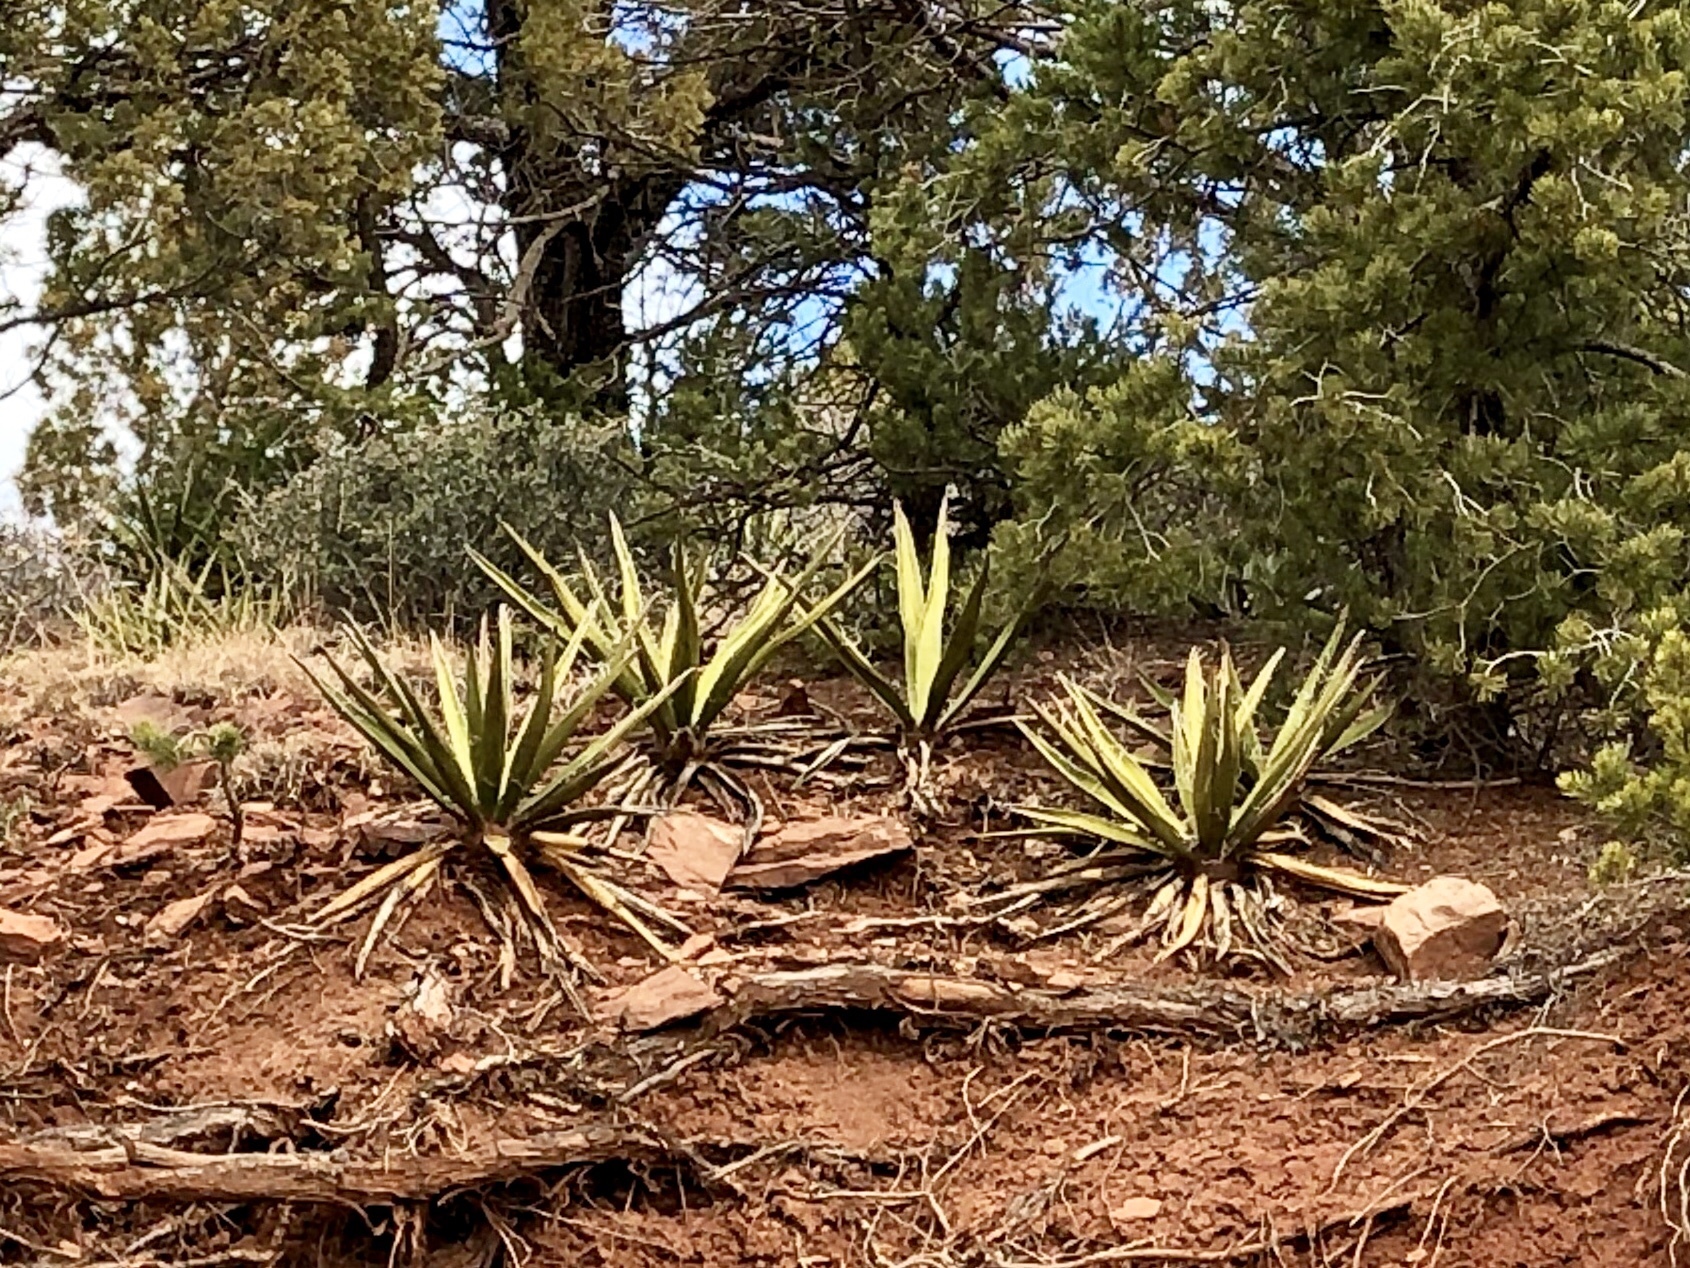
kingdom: Plantae
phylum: Tracheophyta
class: Liliopsida
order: Asparagales
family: Asparagaceae
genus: Yucca
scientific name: Yucca baccata
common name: Banana yucca
